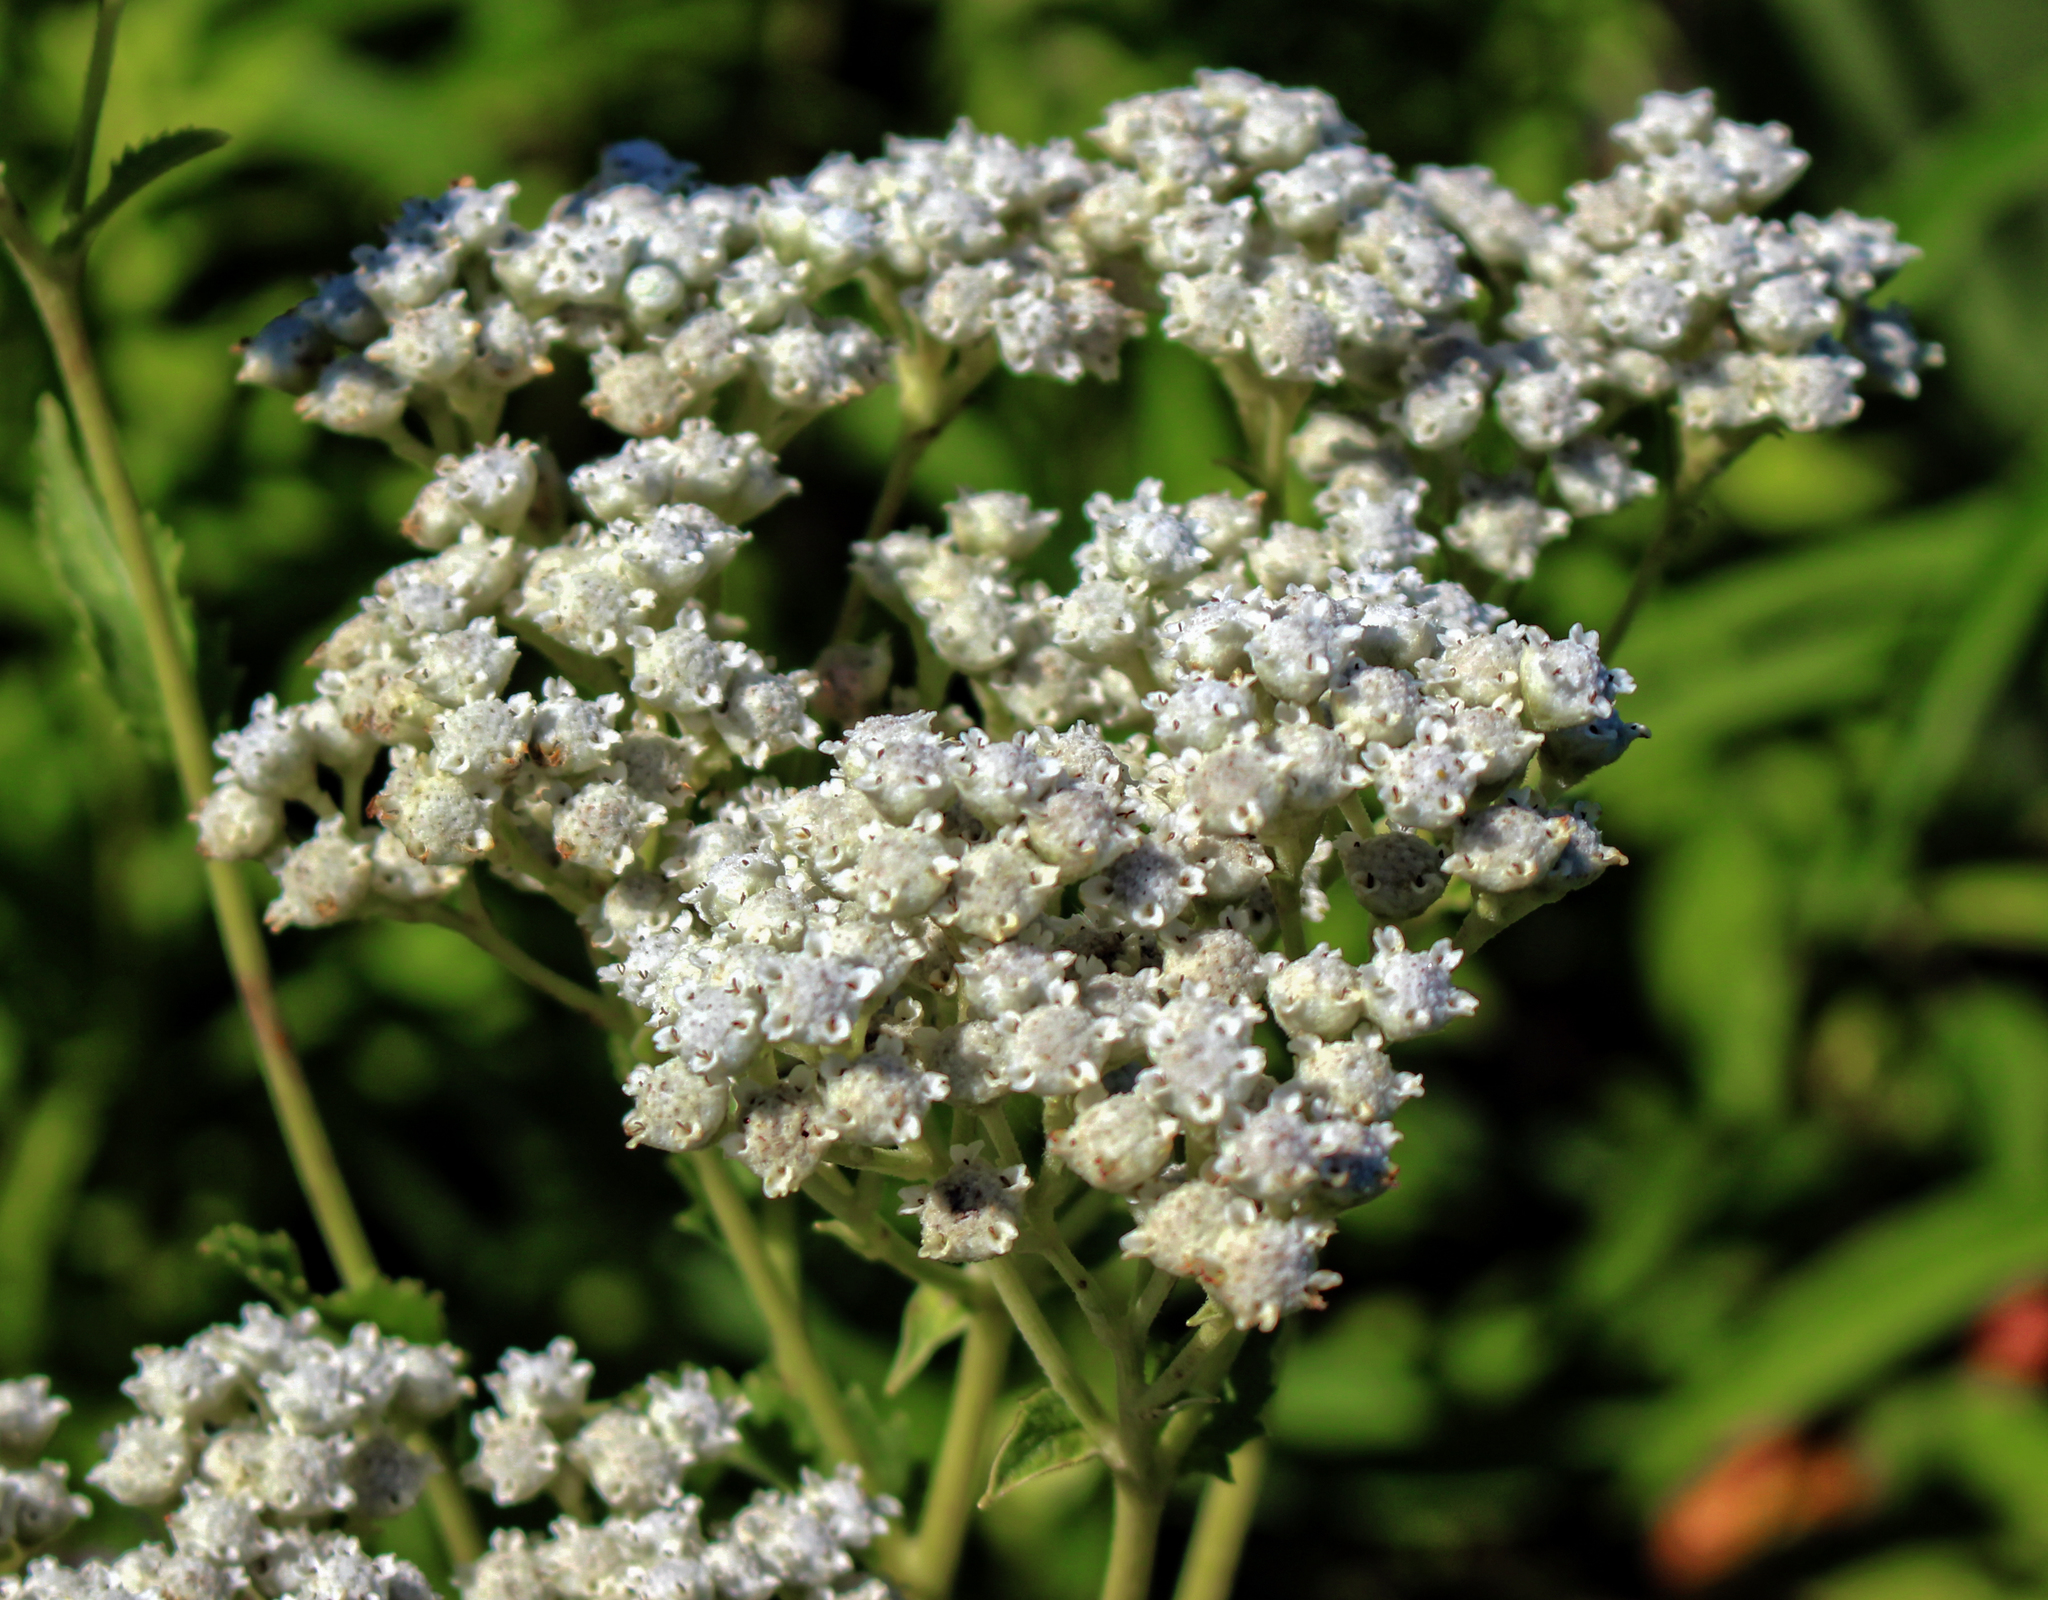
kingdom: Plantae
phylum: Tracheophyta
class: Magnoliopsida
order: Asterales
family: Asteraceae
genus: Parthenium
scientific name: Parthenium integrifolium
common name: American feverfew
